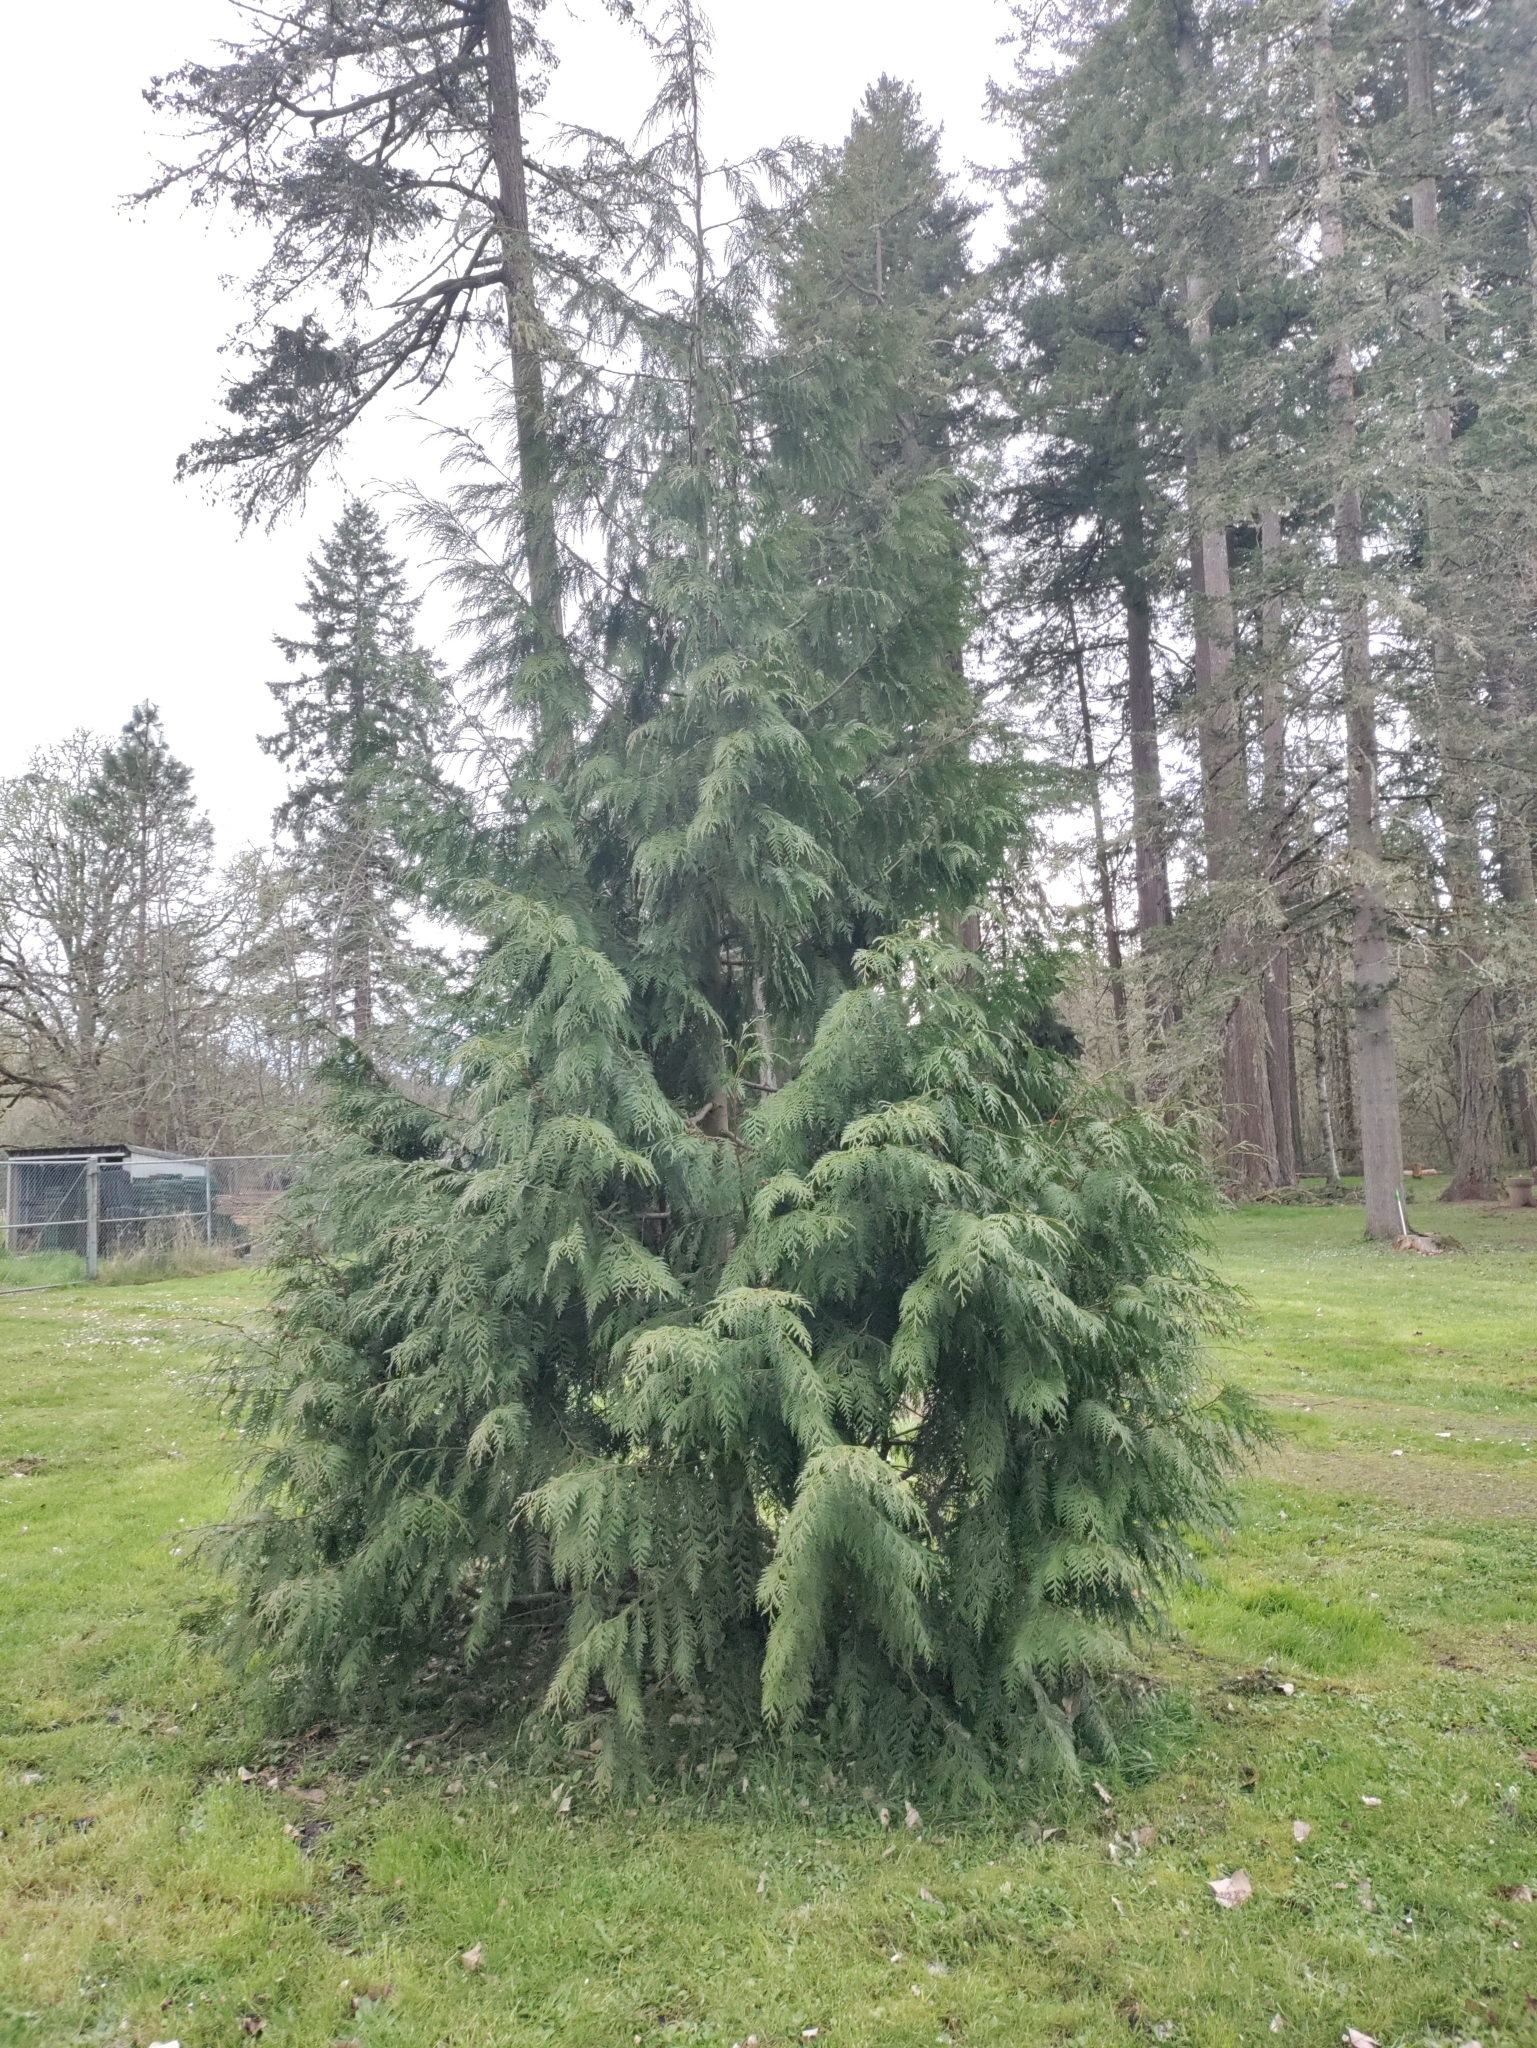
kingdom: Plantae
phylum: Tracheophyta
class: Pinopsida
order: Pinales
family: Cupressaceae
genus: Thuja
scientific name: Thuja plicata
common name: Western red-cedar
